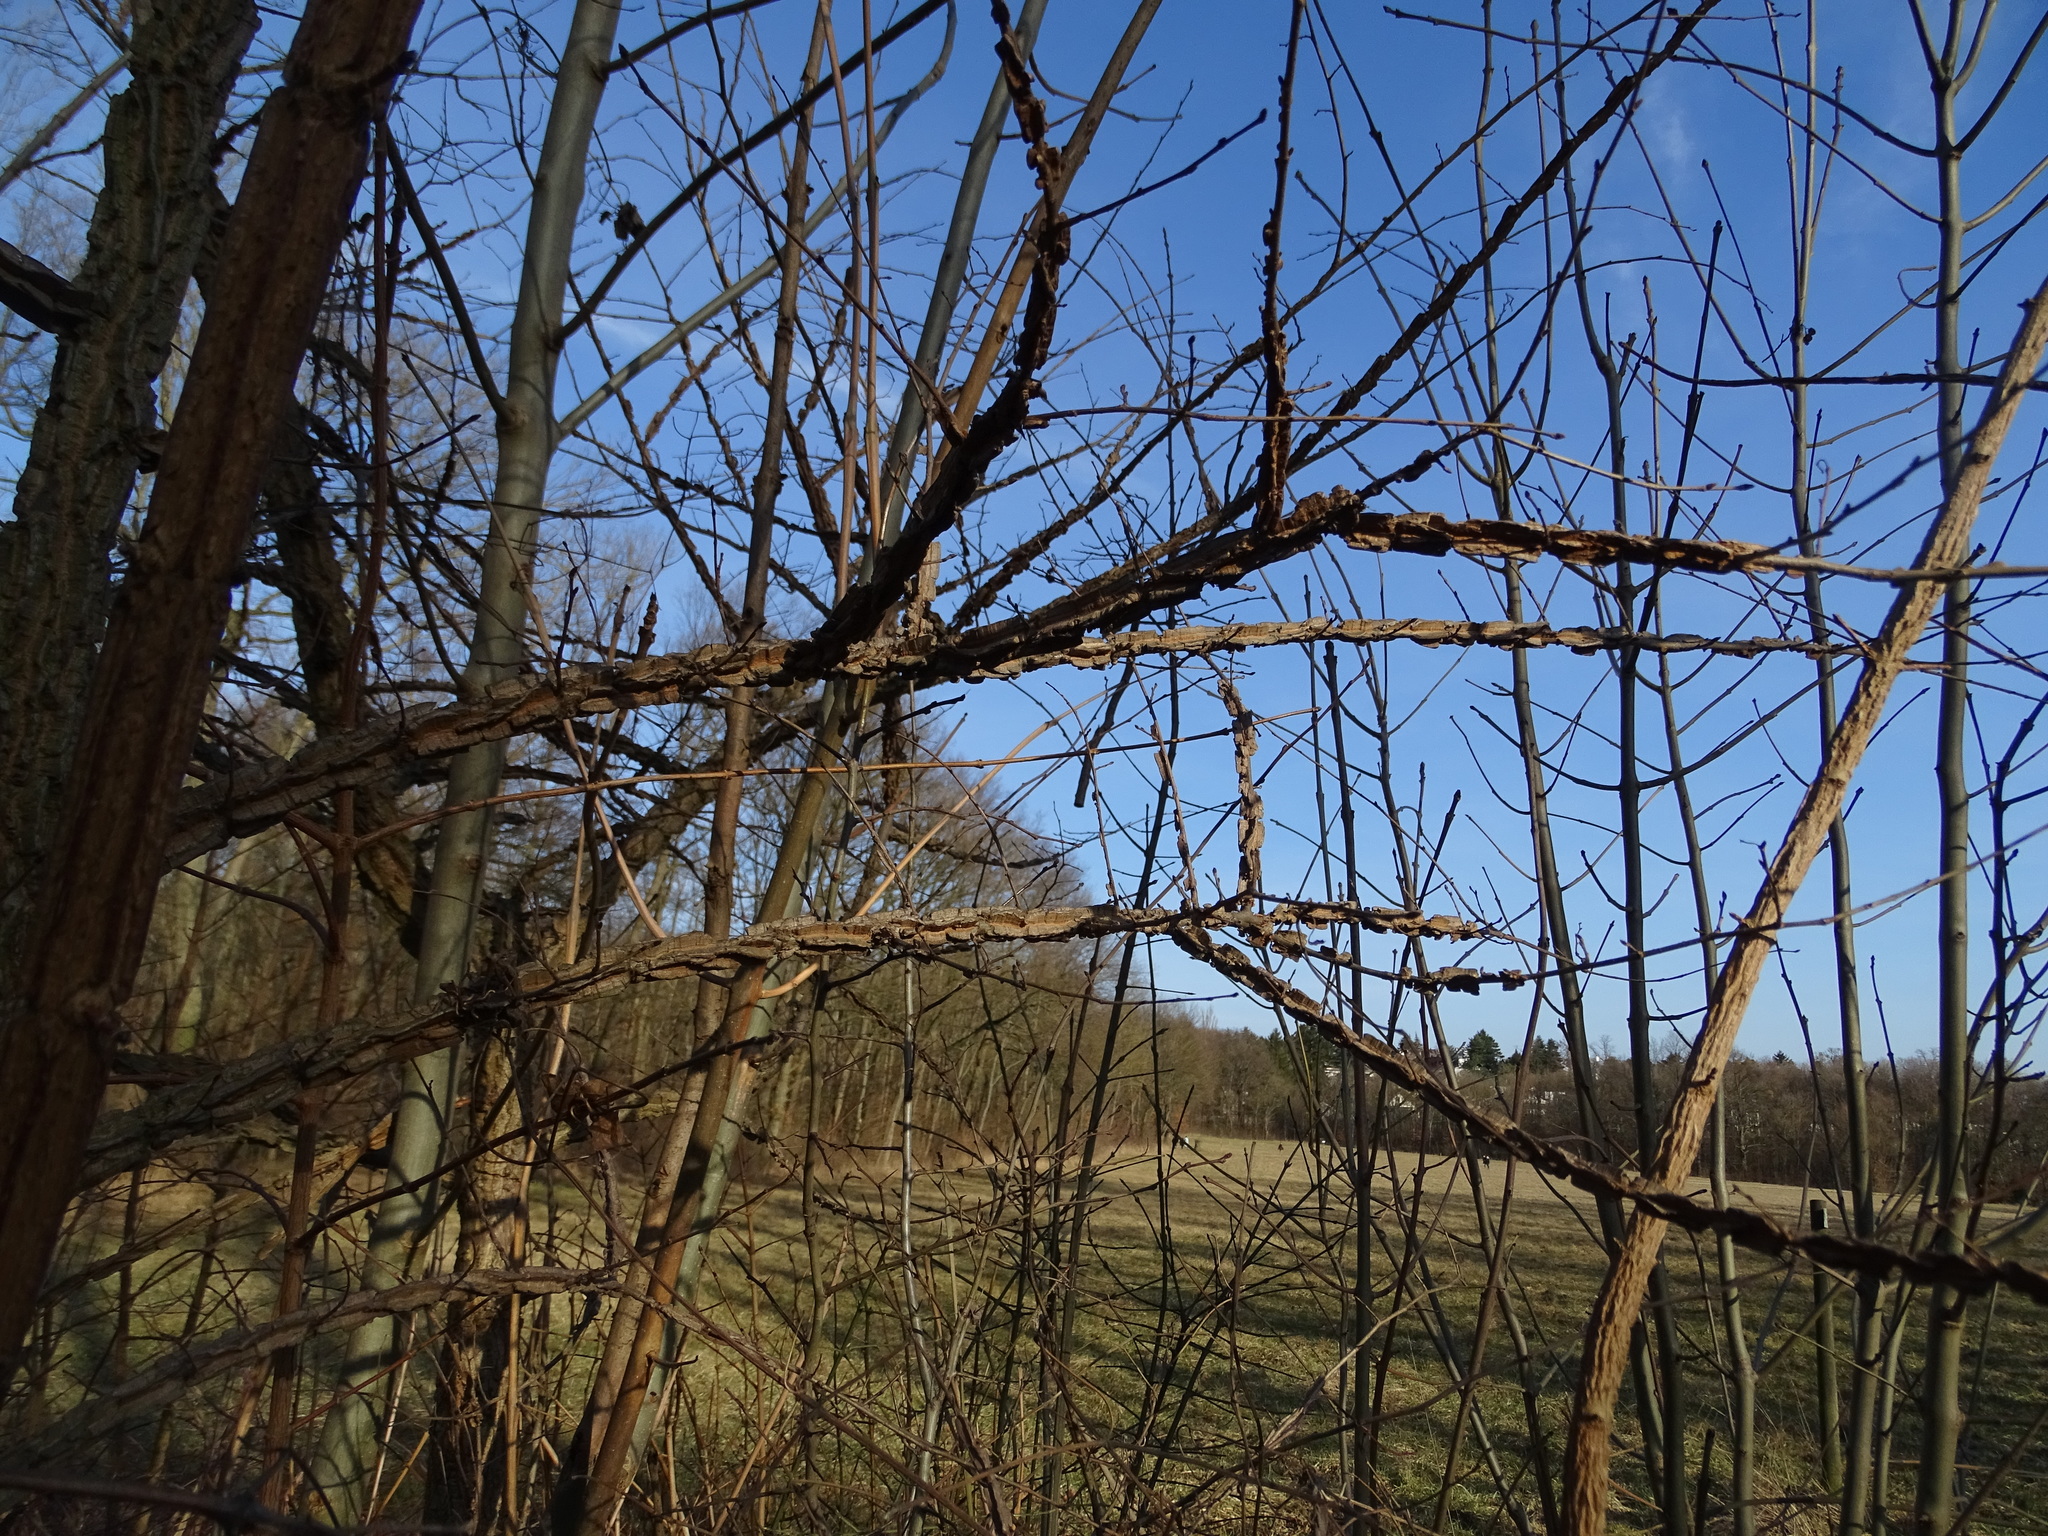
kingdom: Plantae
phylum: Tracheophyta
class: Magnoliopsida
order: Rosales
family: Ulmaceae
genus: Ulmus
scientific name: Ulmus minor
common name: Small-leaved elm
